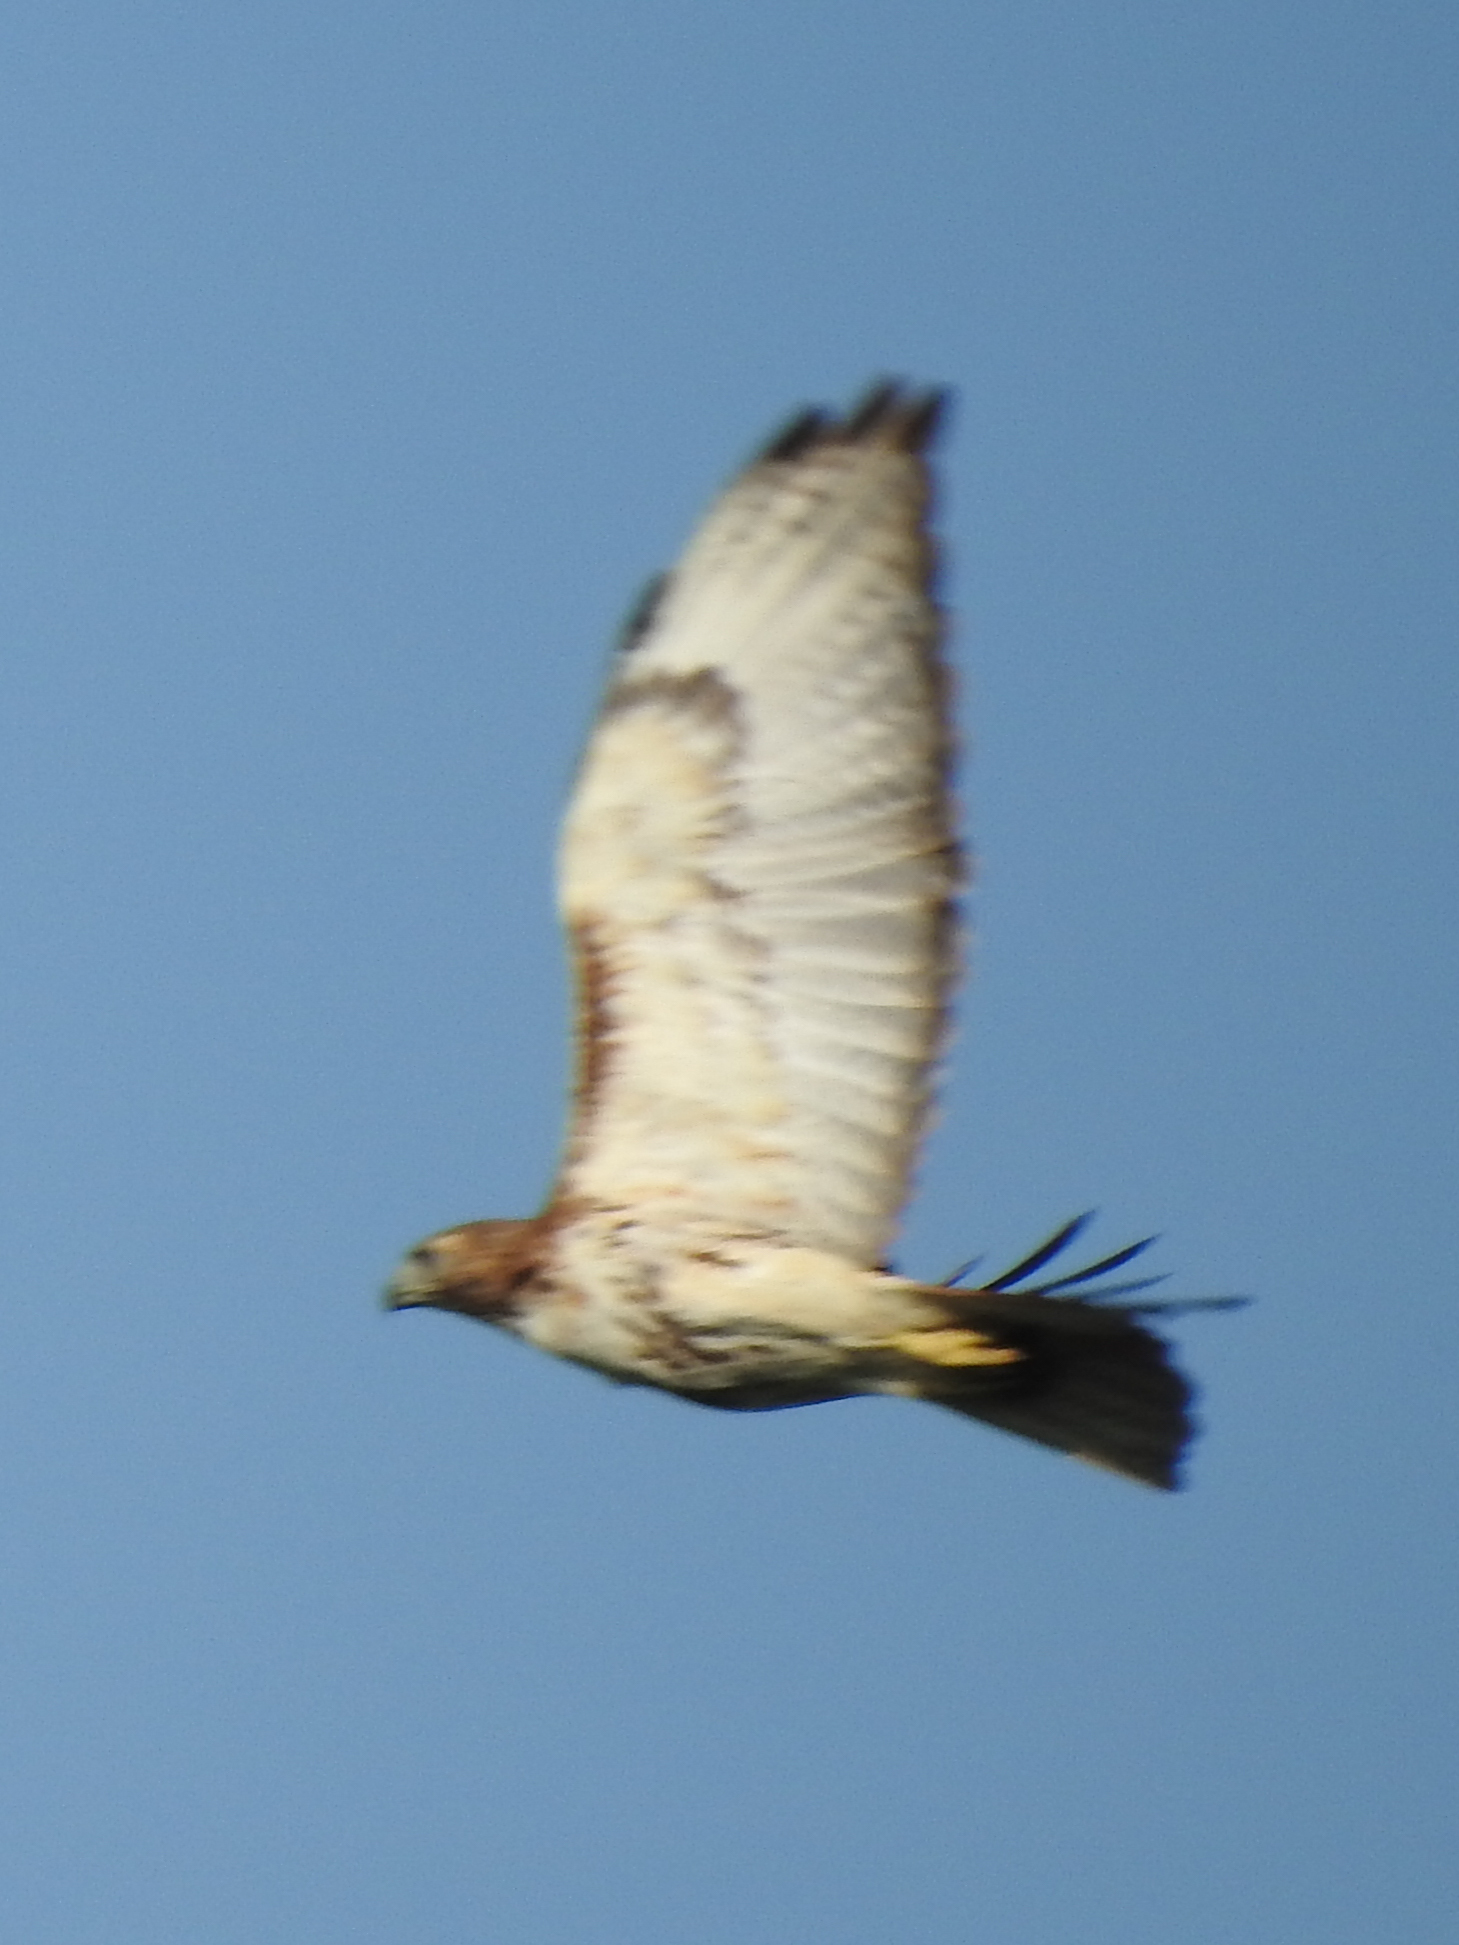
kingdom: Animalia
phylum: Chordata
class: Aves
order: Accipitriformes
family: Accipitridae
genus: Buteo
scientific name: Buteo jamaicensis
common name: Red-tailed hawk
